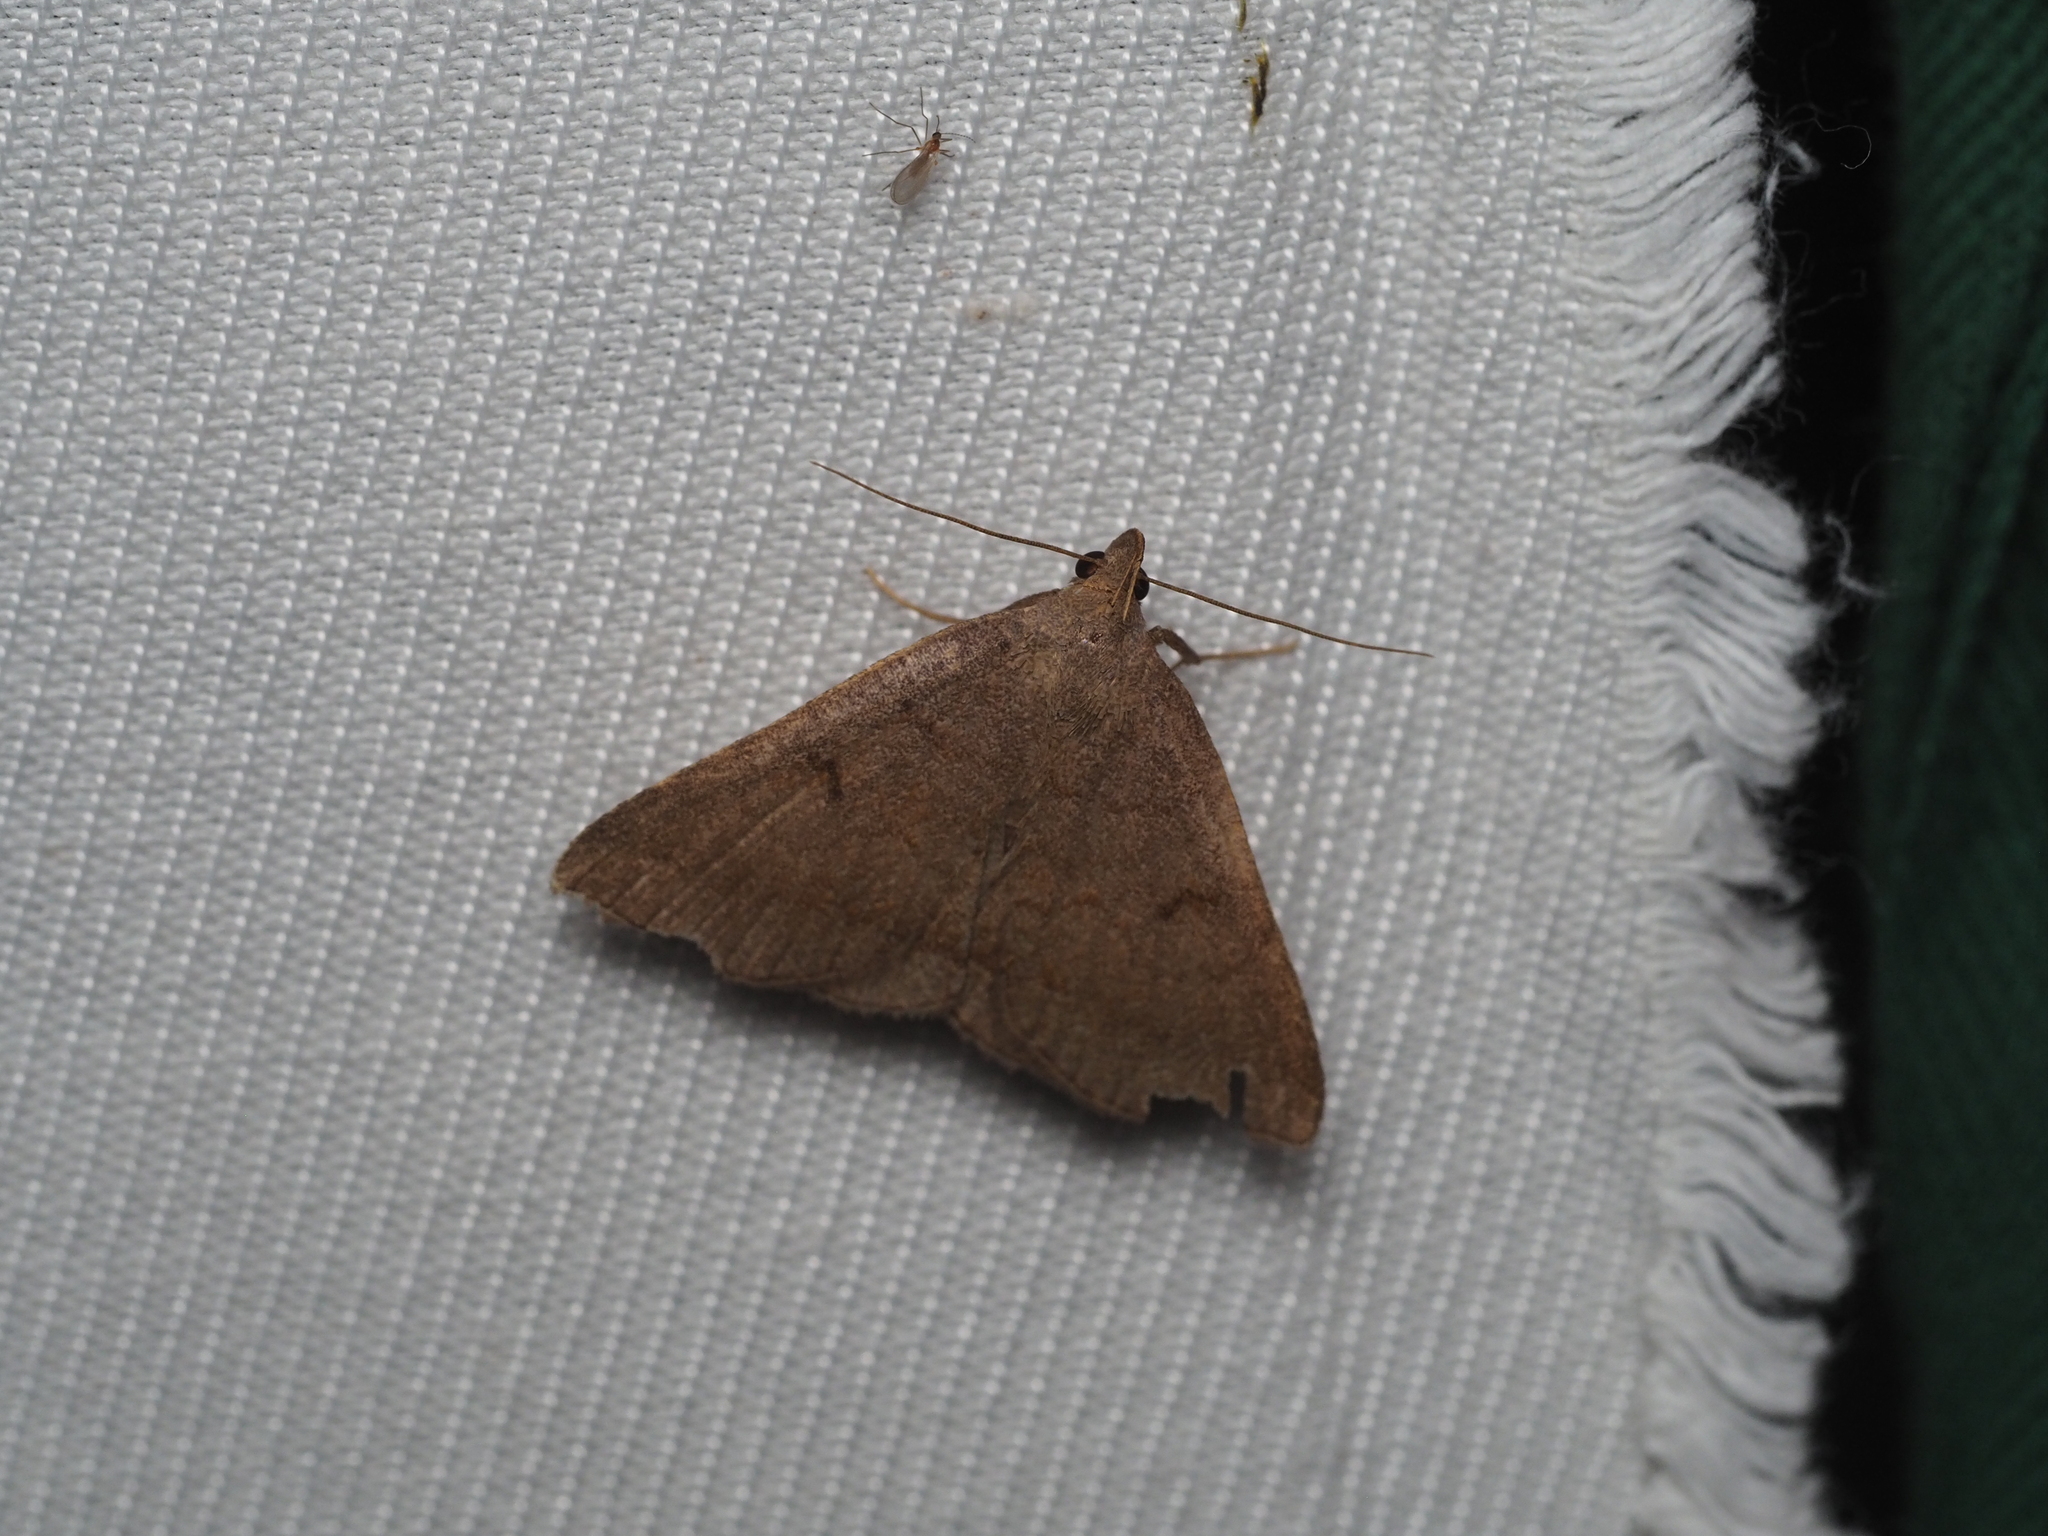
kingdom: Animalia
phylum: Arthropoda
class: Insecta
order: Lepidoptera
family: Erebidae
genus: Zanclognatha
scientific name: Zanclognatha lunalis
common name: Jubilee fan-foot
